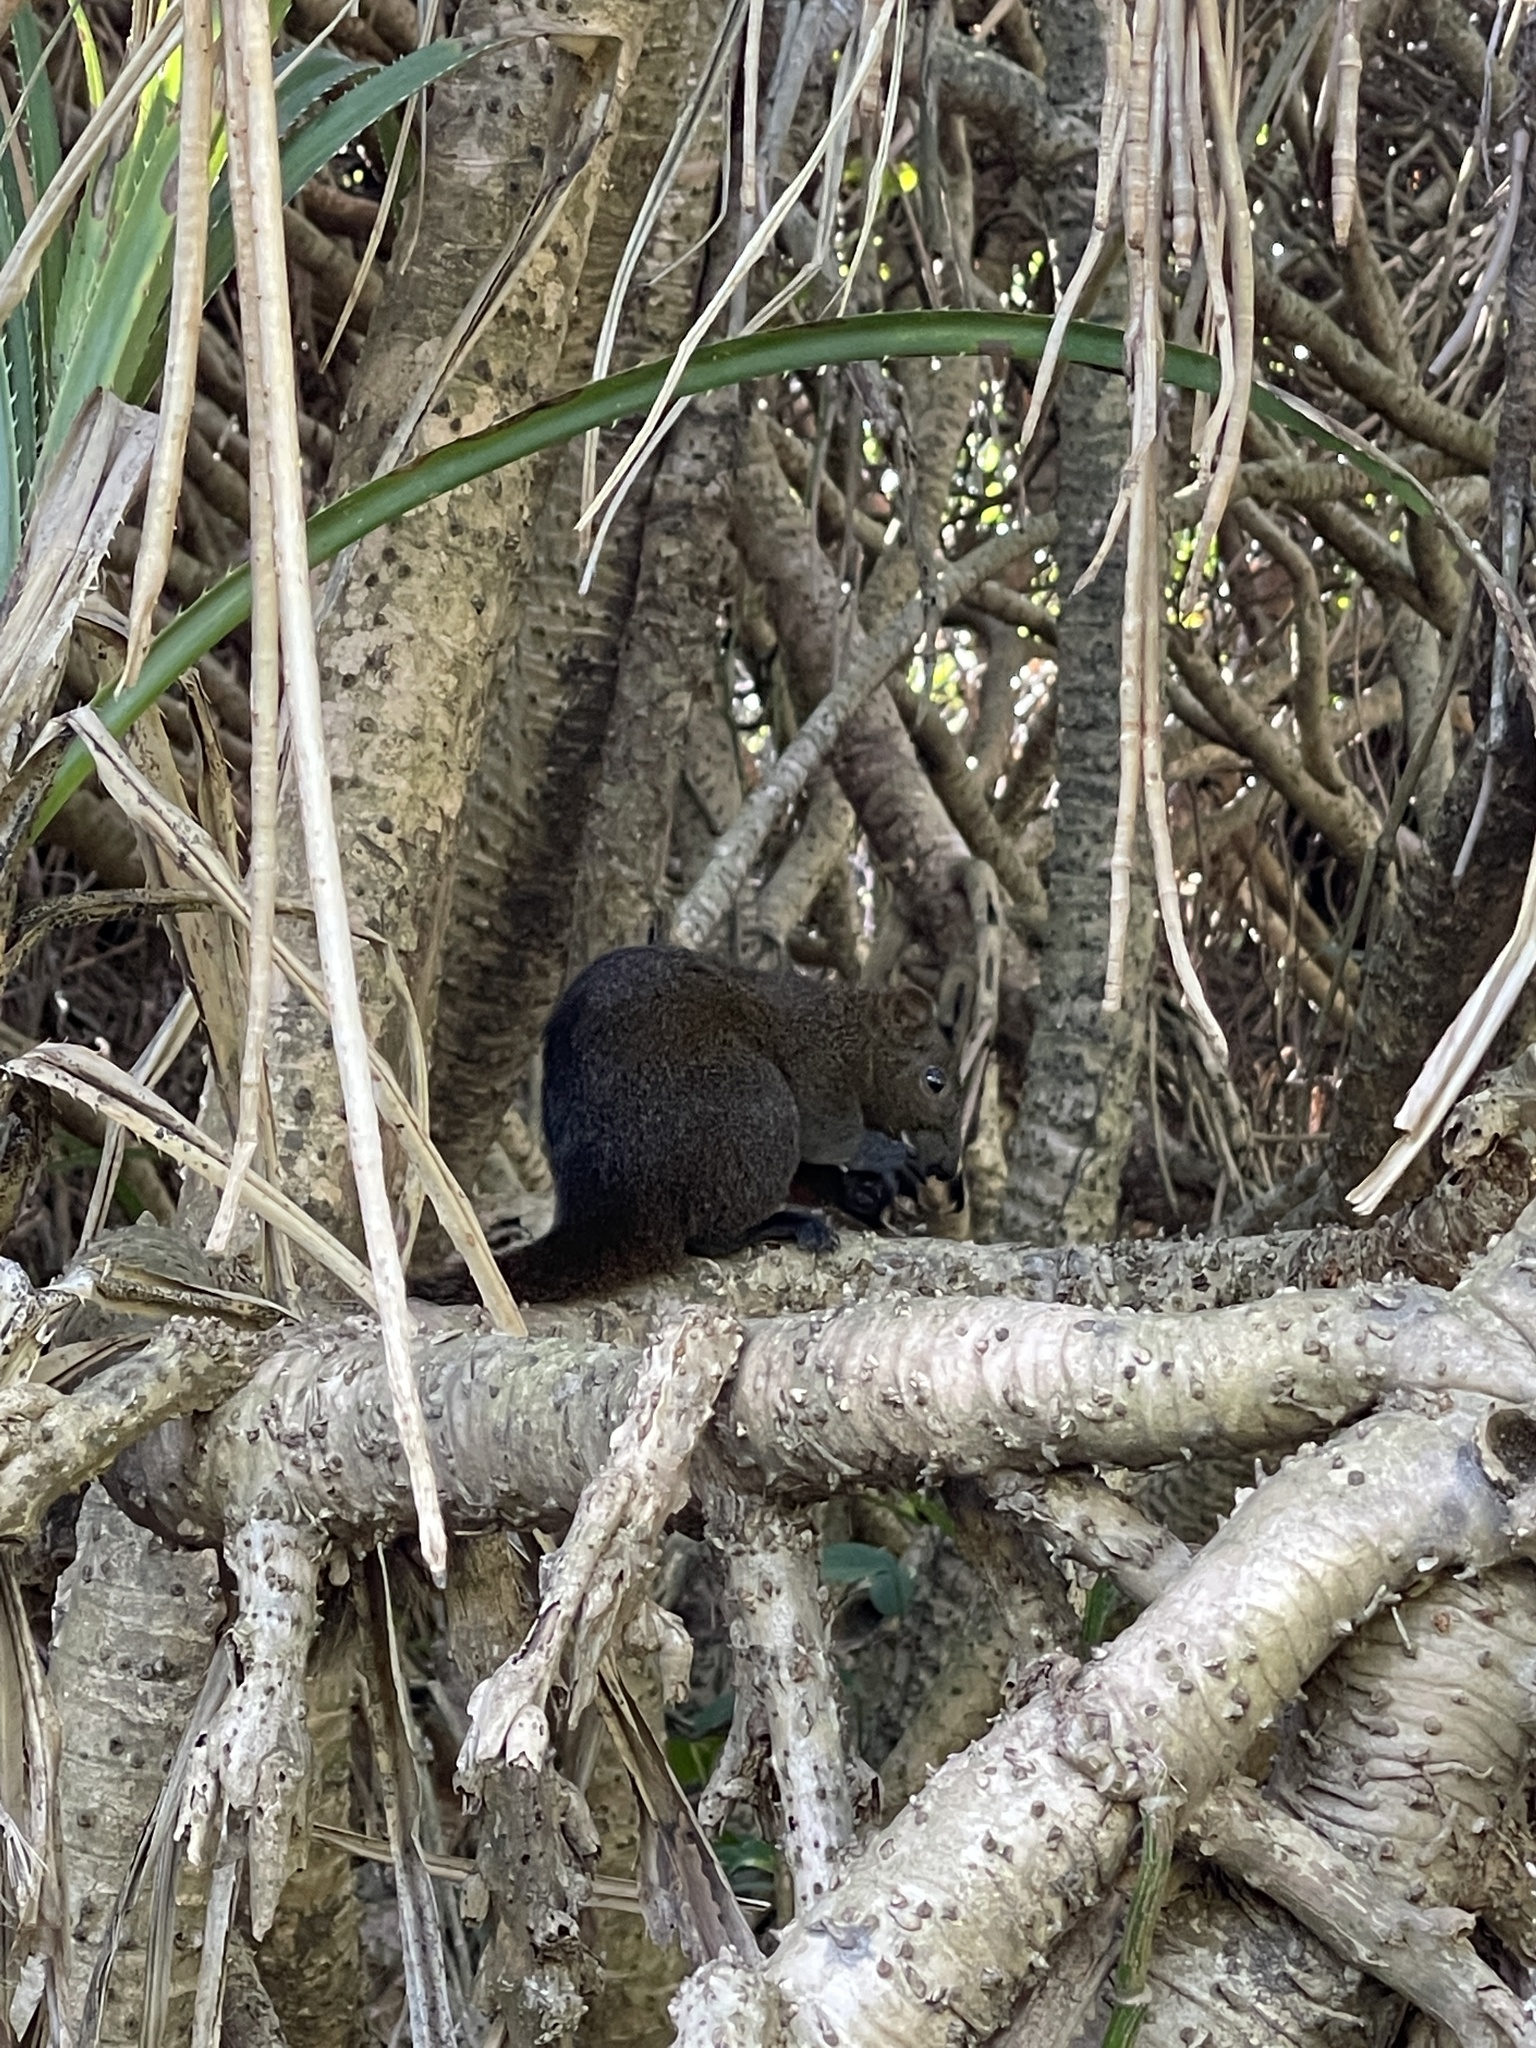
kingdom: Animalia
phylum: Chordata
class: Mammalia
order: Rodentia
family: Sciuridae
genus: Callosciurus
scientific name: Callosciurus erythraeus
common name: Pallas's squirrel
